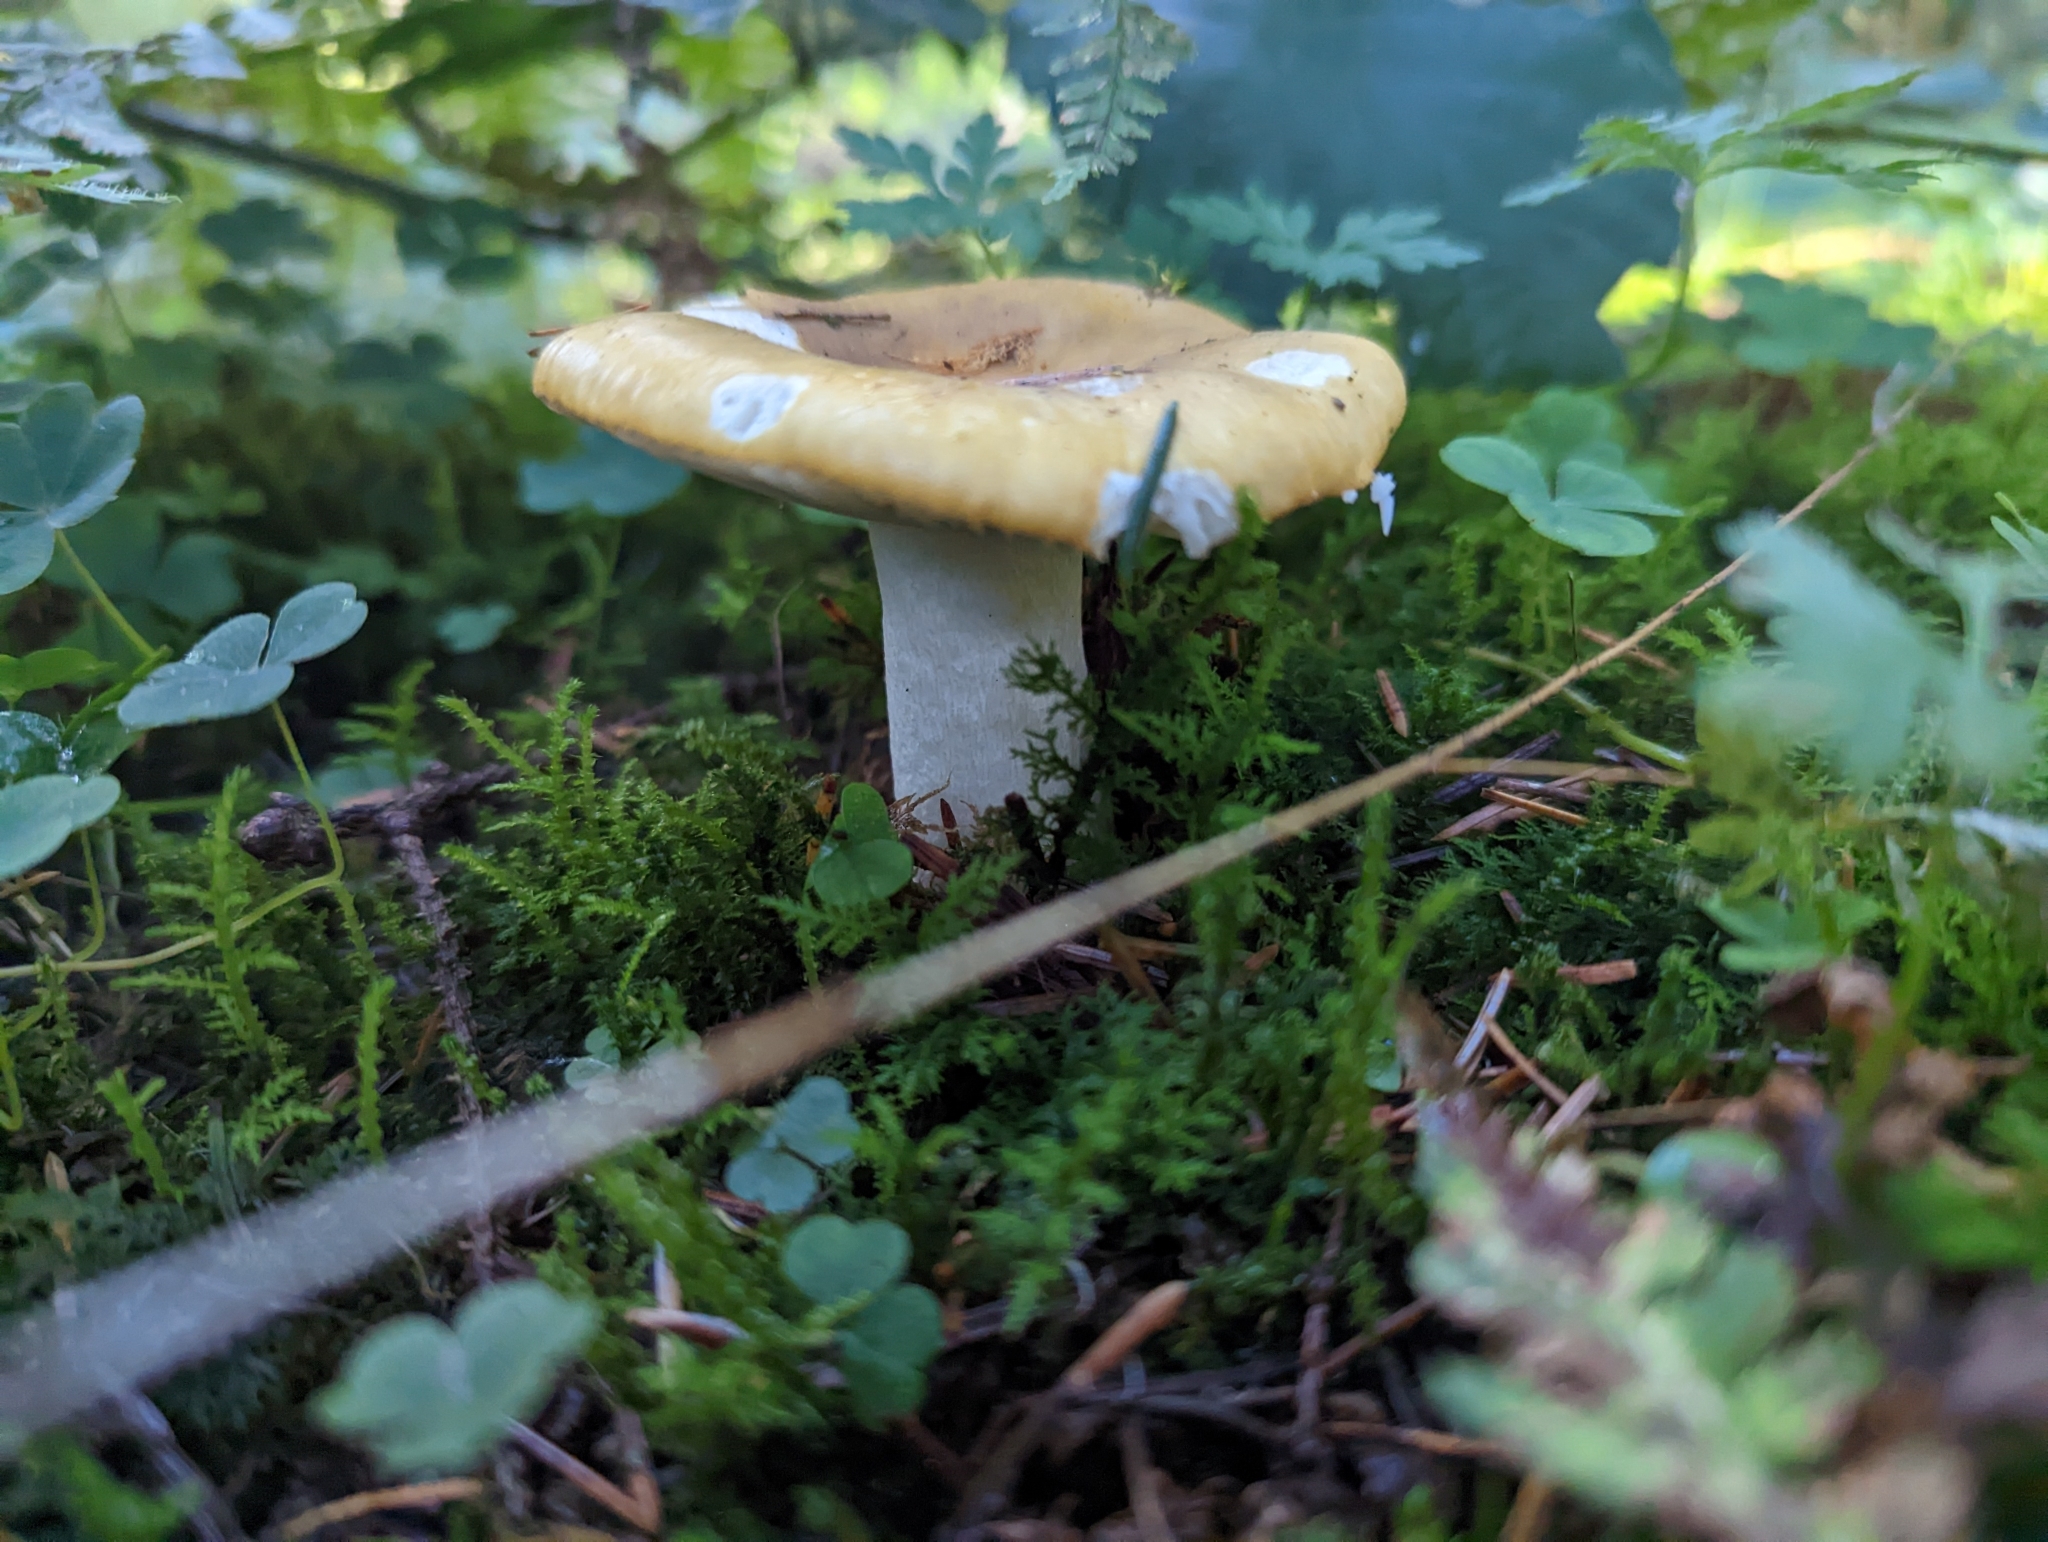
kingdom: Fungi
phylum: Basidiomycota
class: Agaricomycetes
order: Russulales
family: Russulaceae
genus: Russula
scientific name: Russula ochroleuca
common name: Common yellow russula
